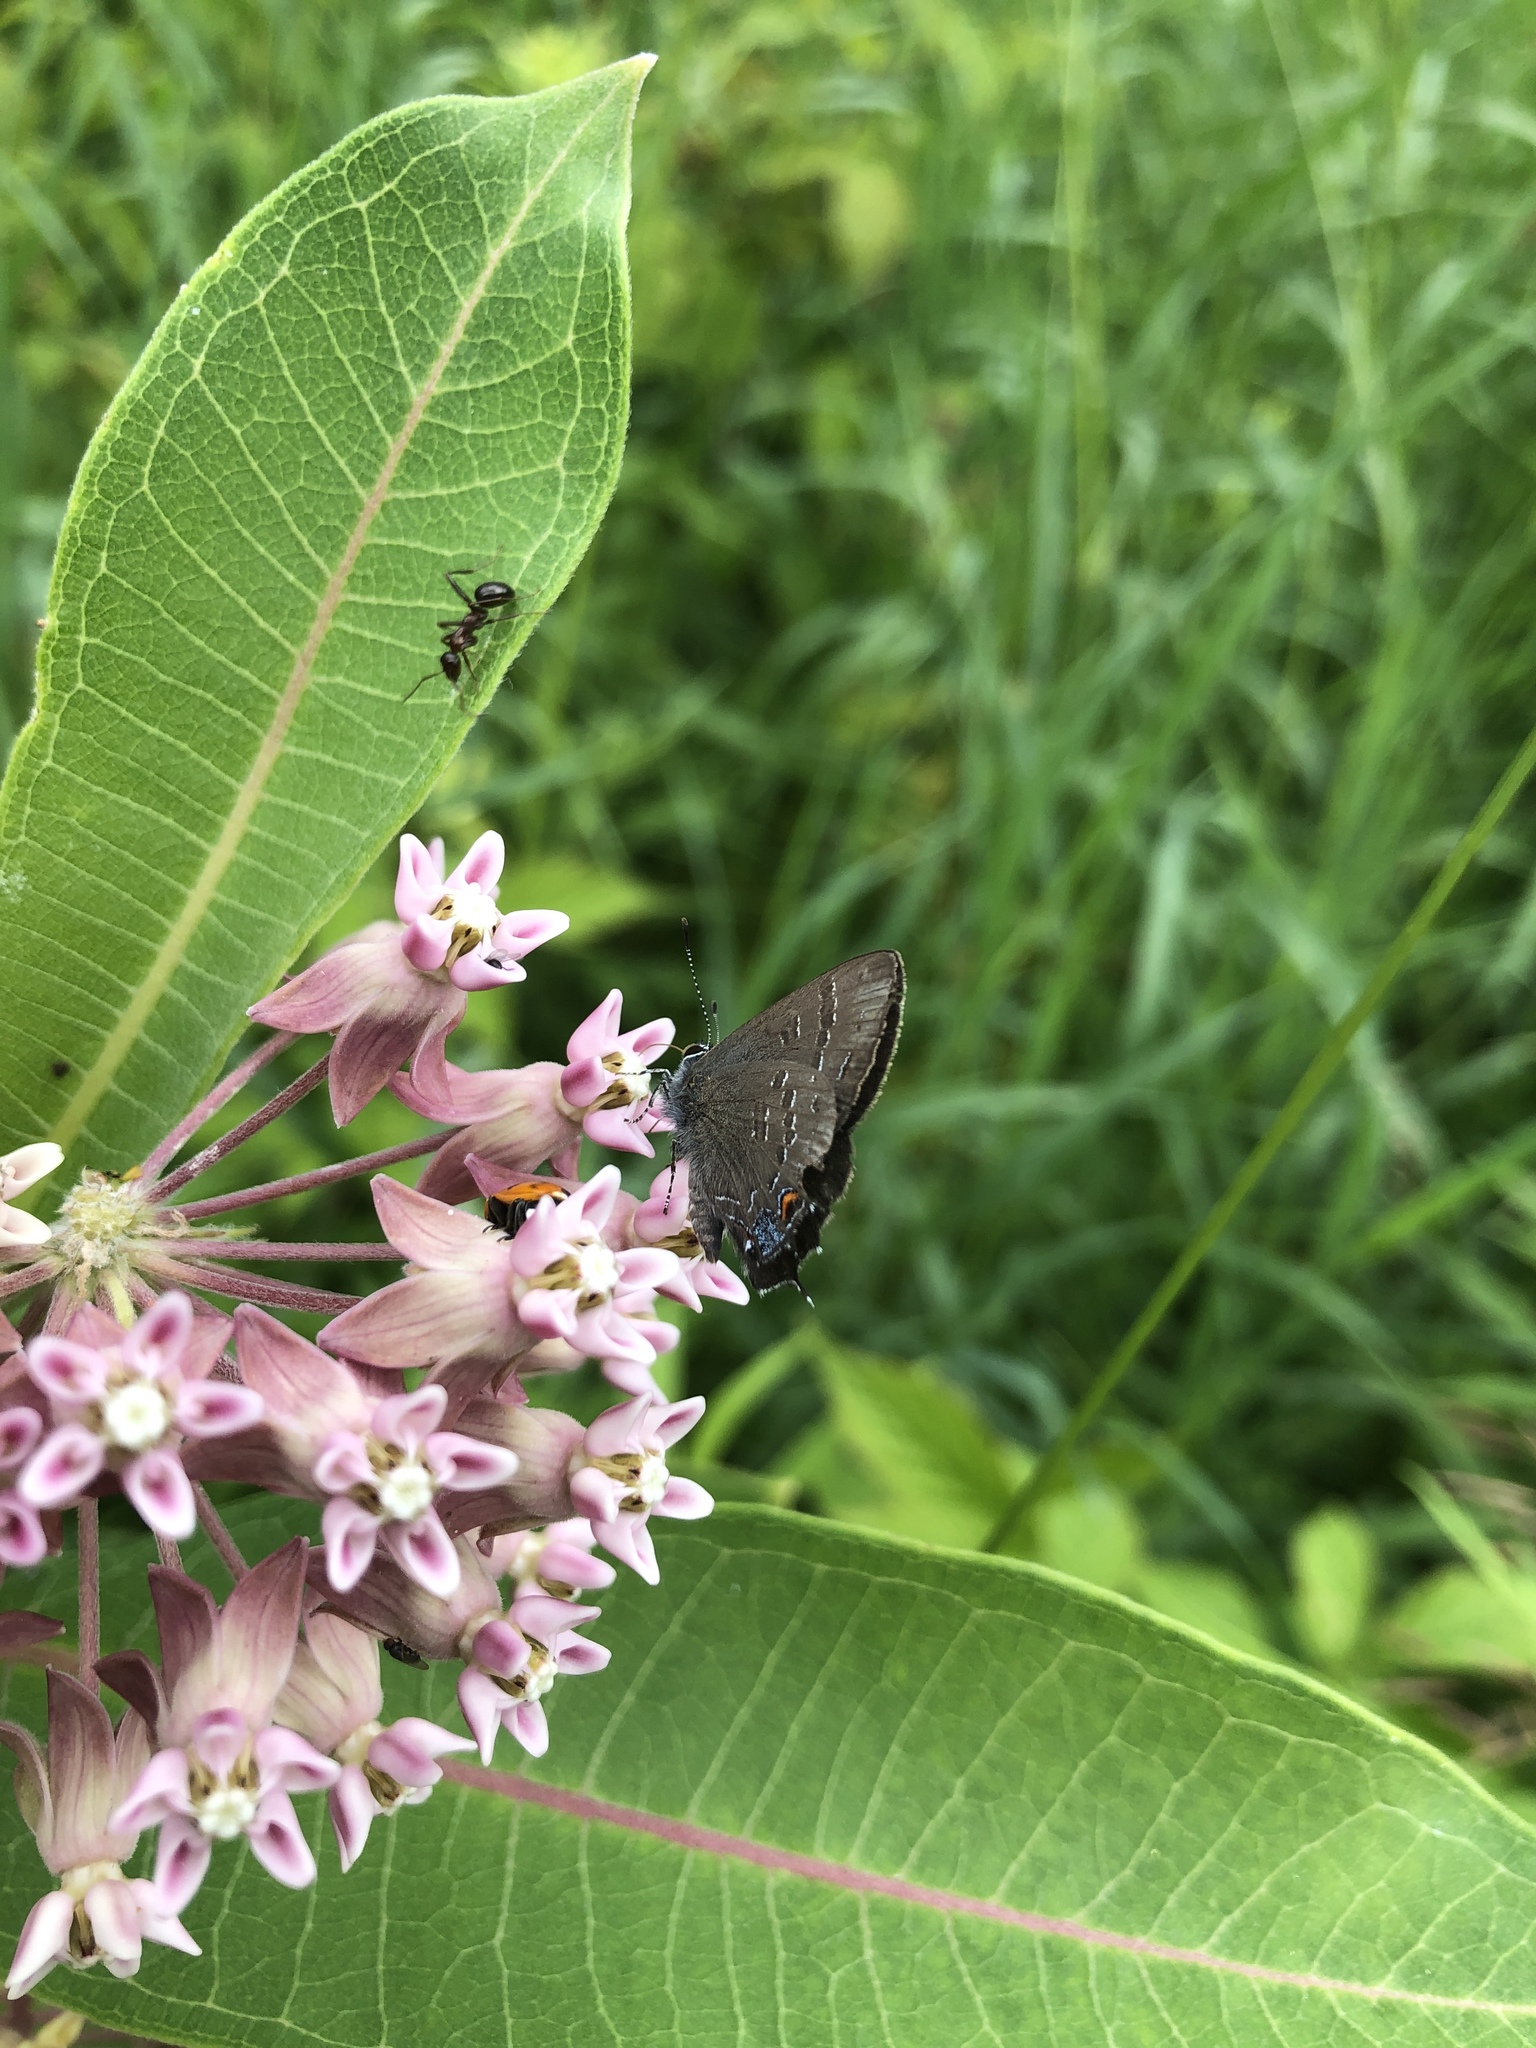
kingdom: Animalia
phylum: Arthropoda
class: Insecta
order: Lepidoptera
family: Lycaenidae
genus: Satyrium
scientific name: Satyrium calanus
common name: Banded hairstreak
